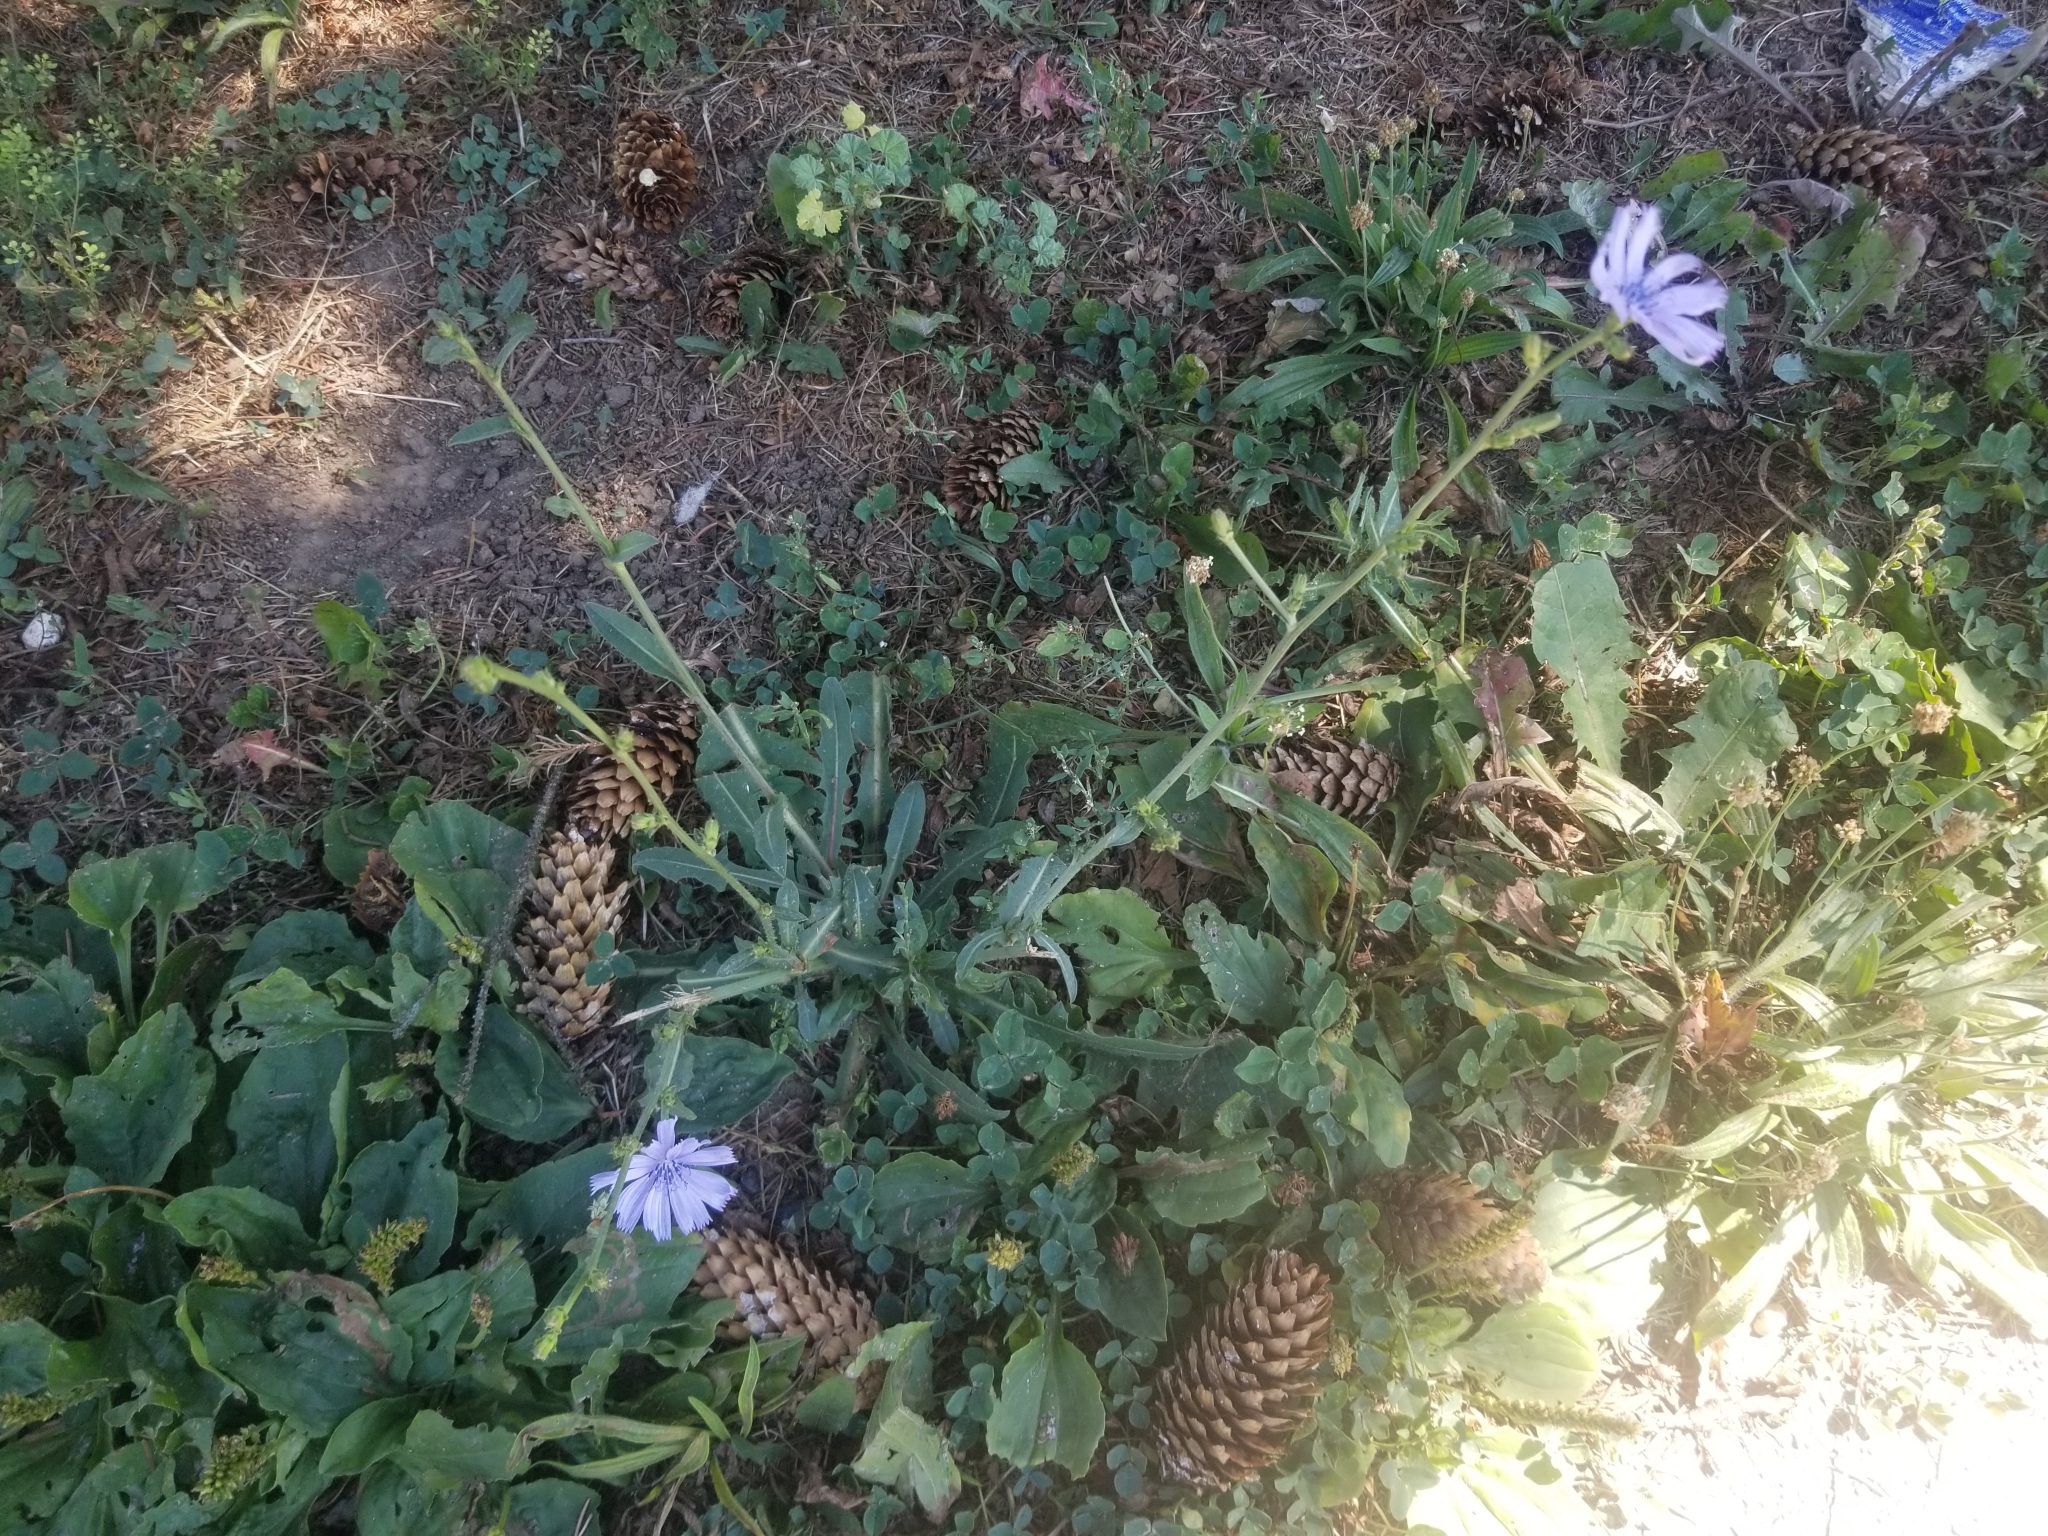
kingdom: Plantae
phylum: Tracheophyta
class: Magnoliopsida
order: Asterales
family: Asteraceae
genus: Cichorium
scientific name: Cichorium intybus
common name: Chicory
